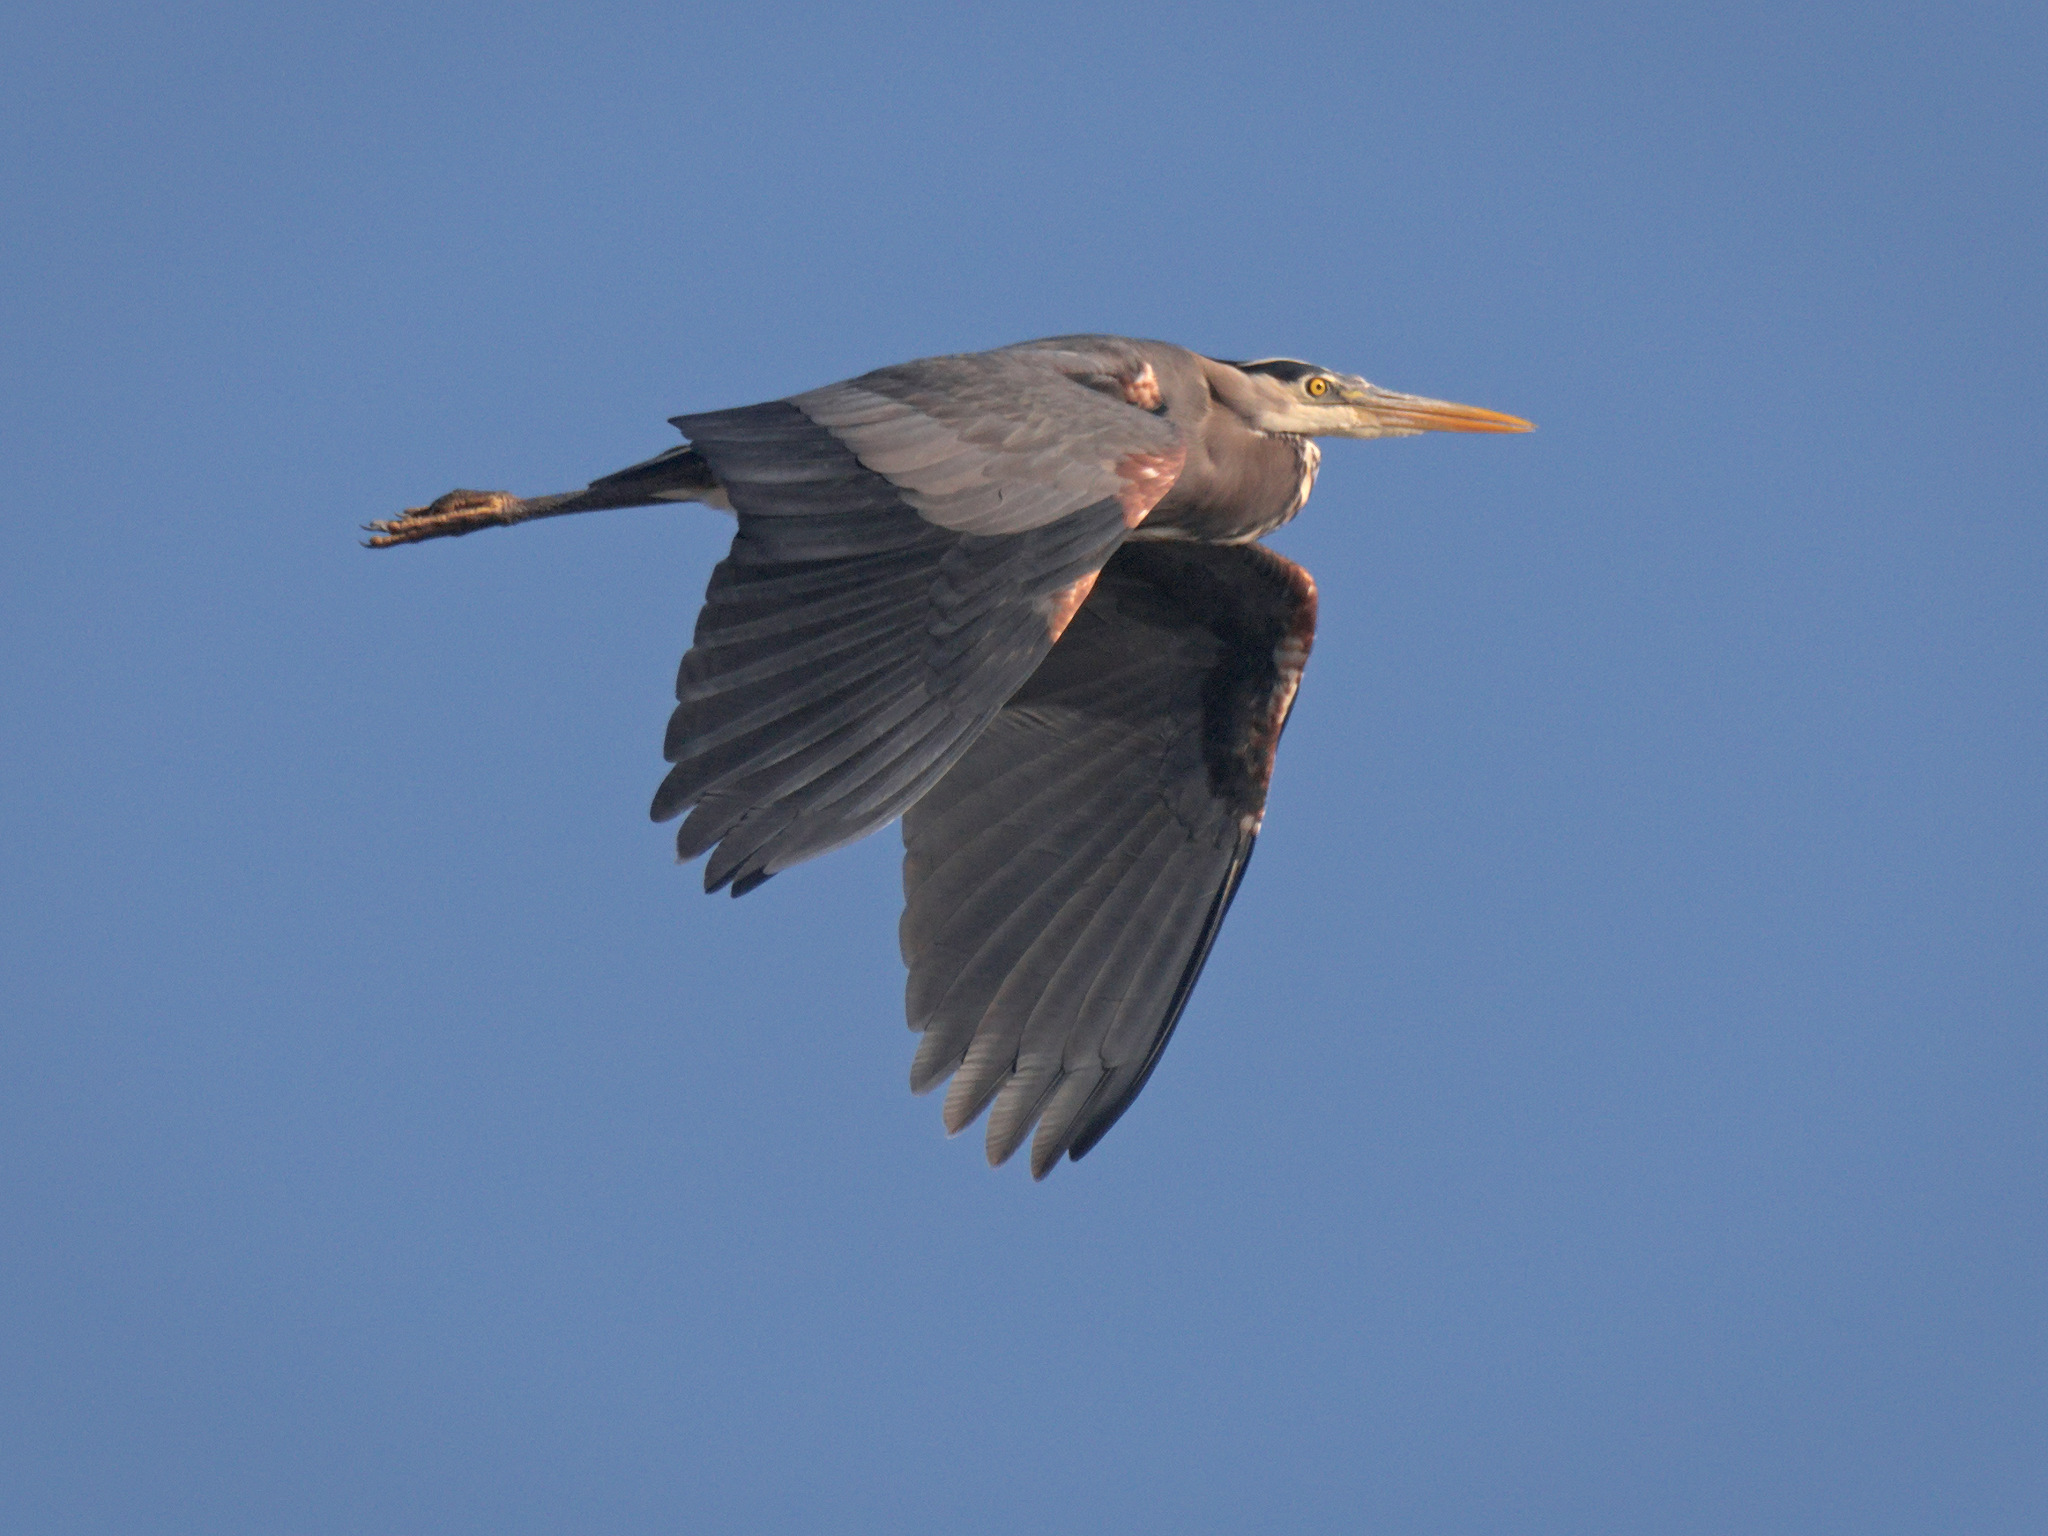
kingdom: Animalia
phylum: Chordata
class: Aves
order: Pelecaniformes
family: Ardeidae
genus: Ardea
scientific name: Ardea herodias
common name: Great blue heron
